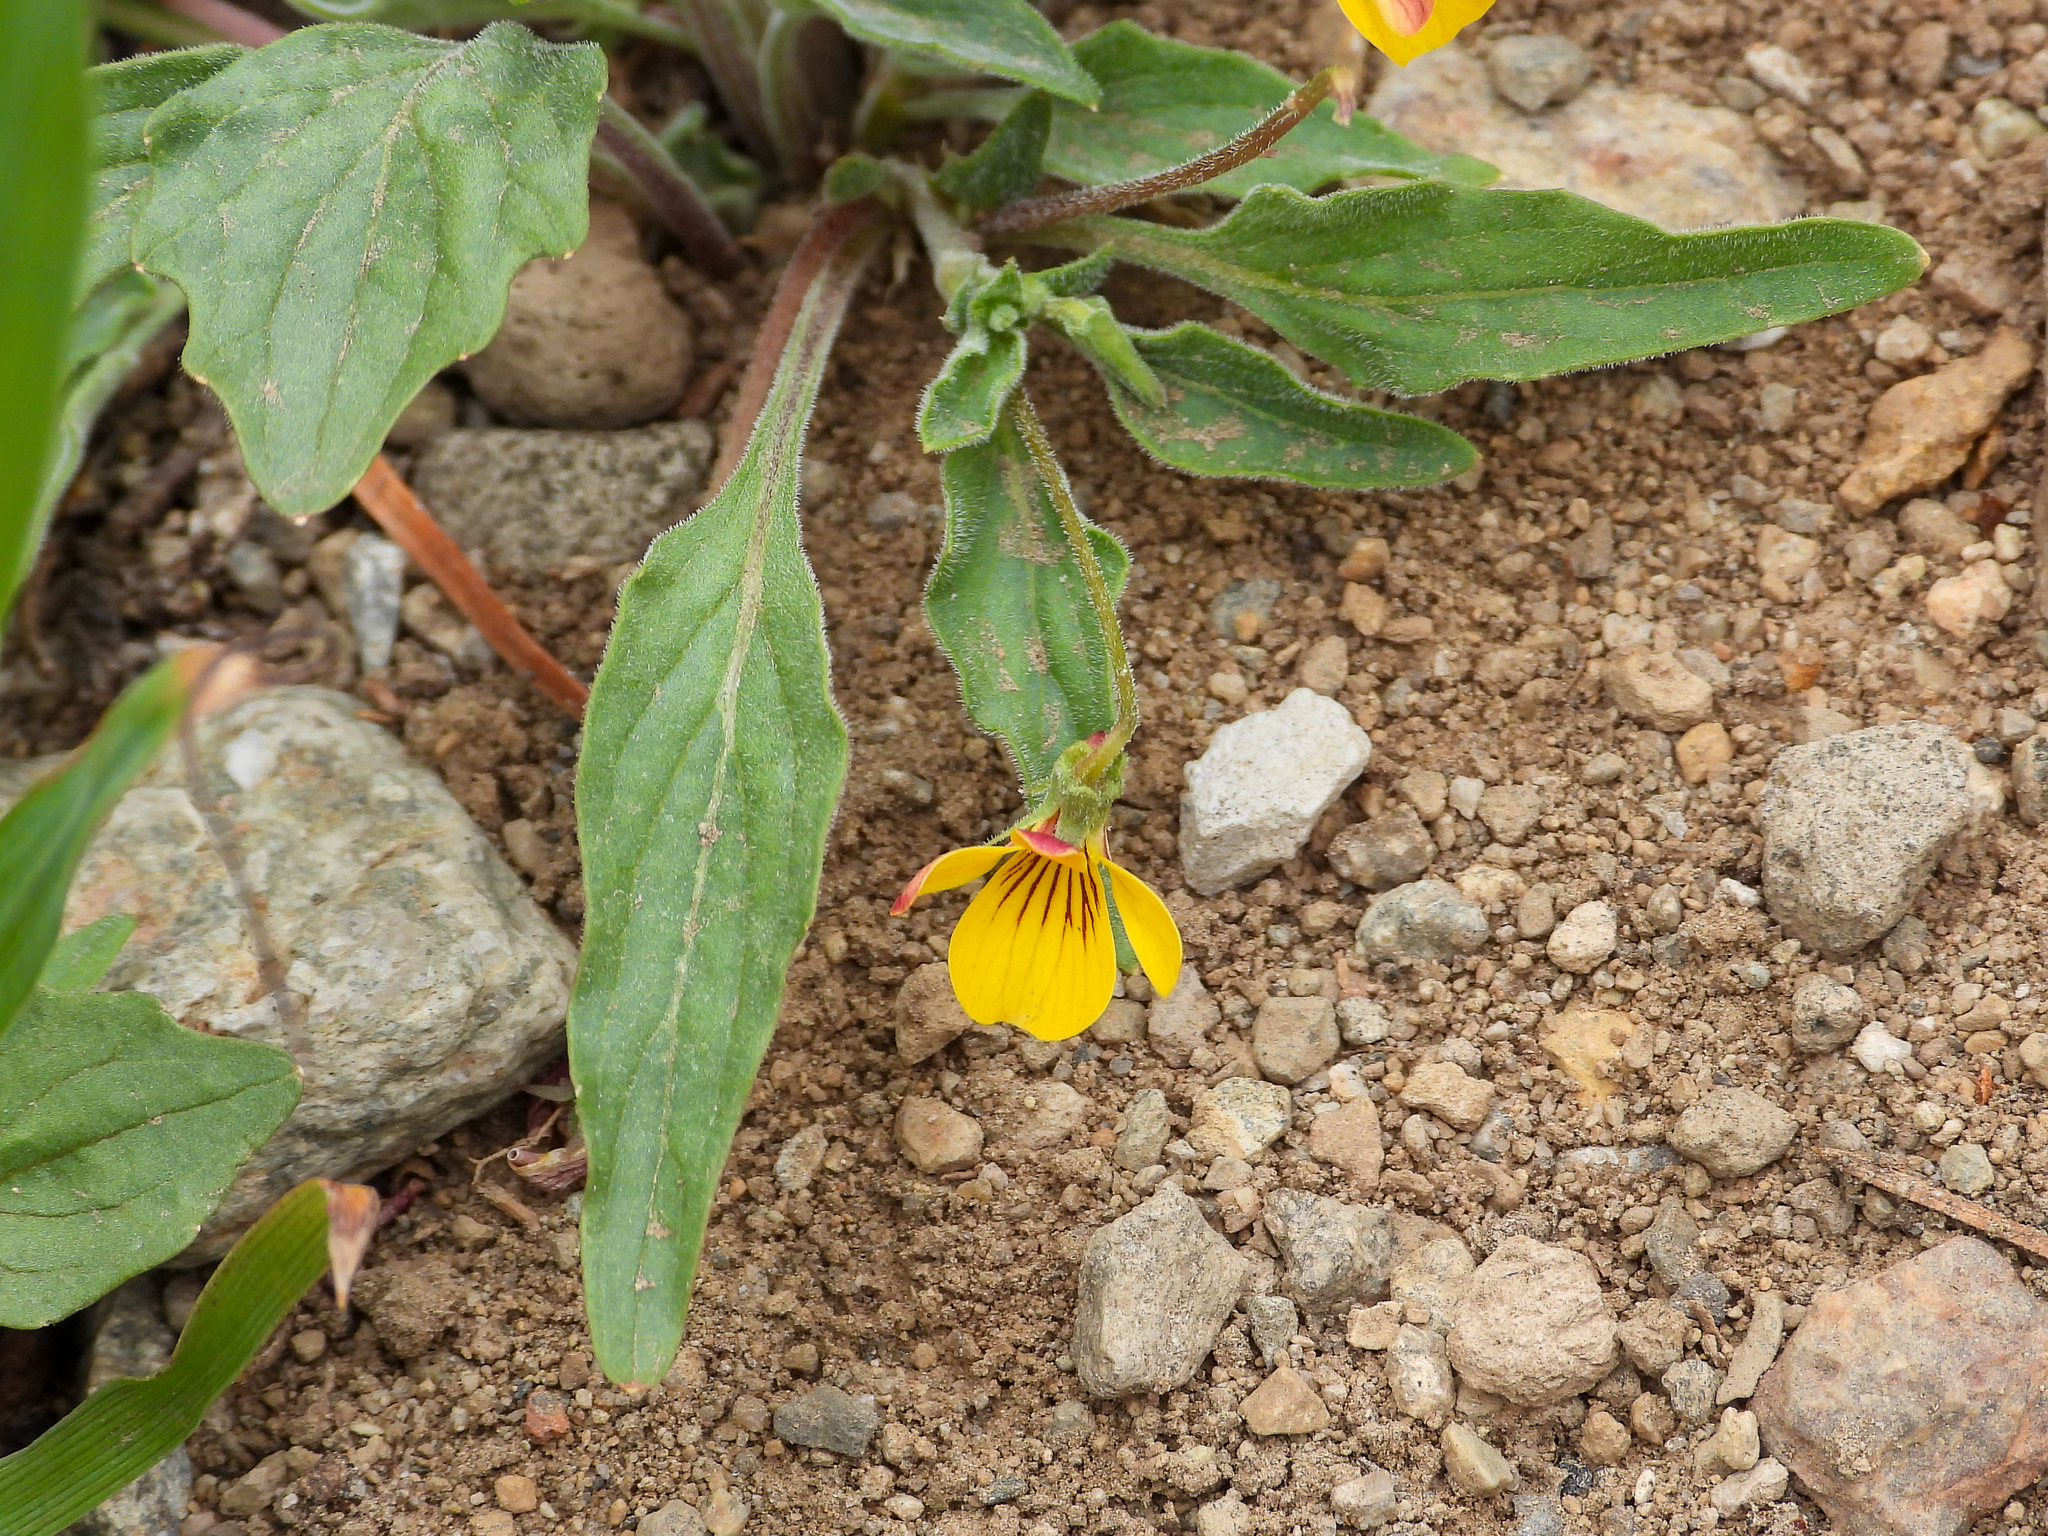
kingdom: Plantae
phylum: Tracheophyta
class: Magnoliopsida
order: Malpighiales
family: Violaceae
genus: Viola
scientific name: Viola pinetorum
